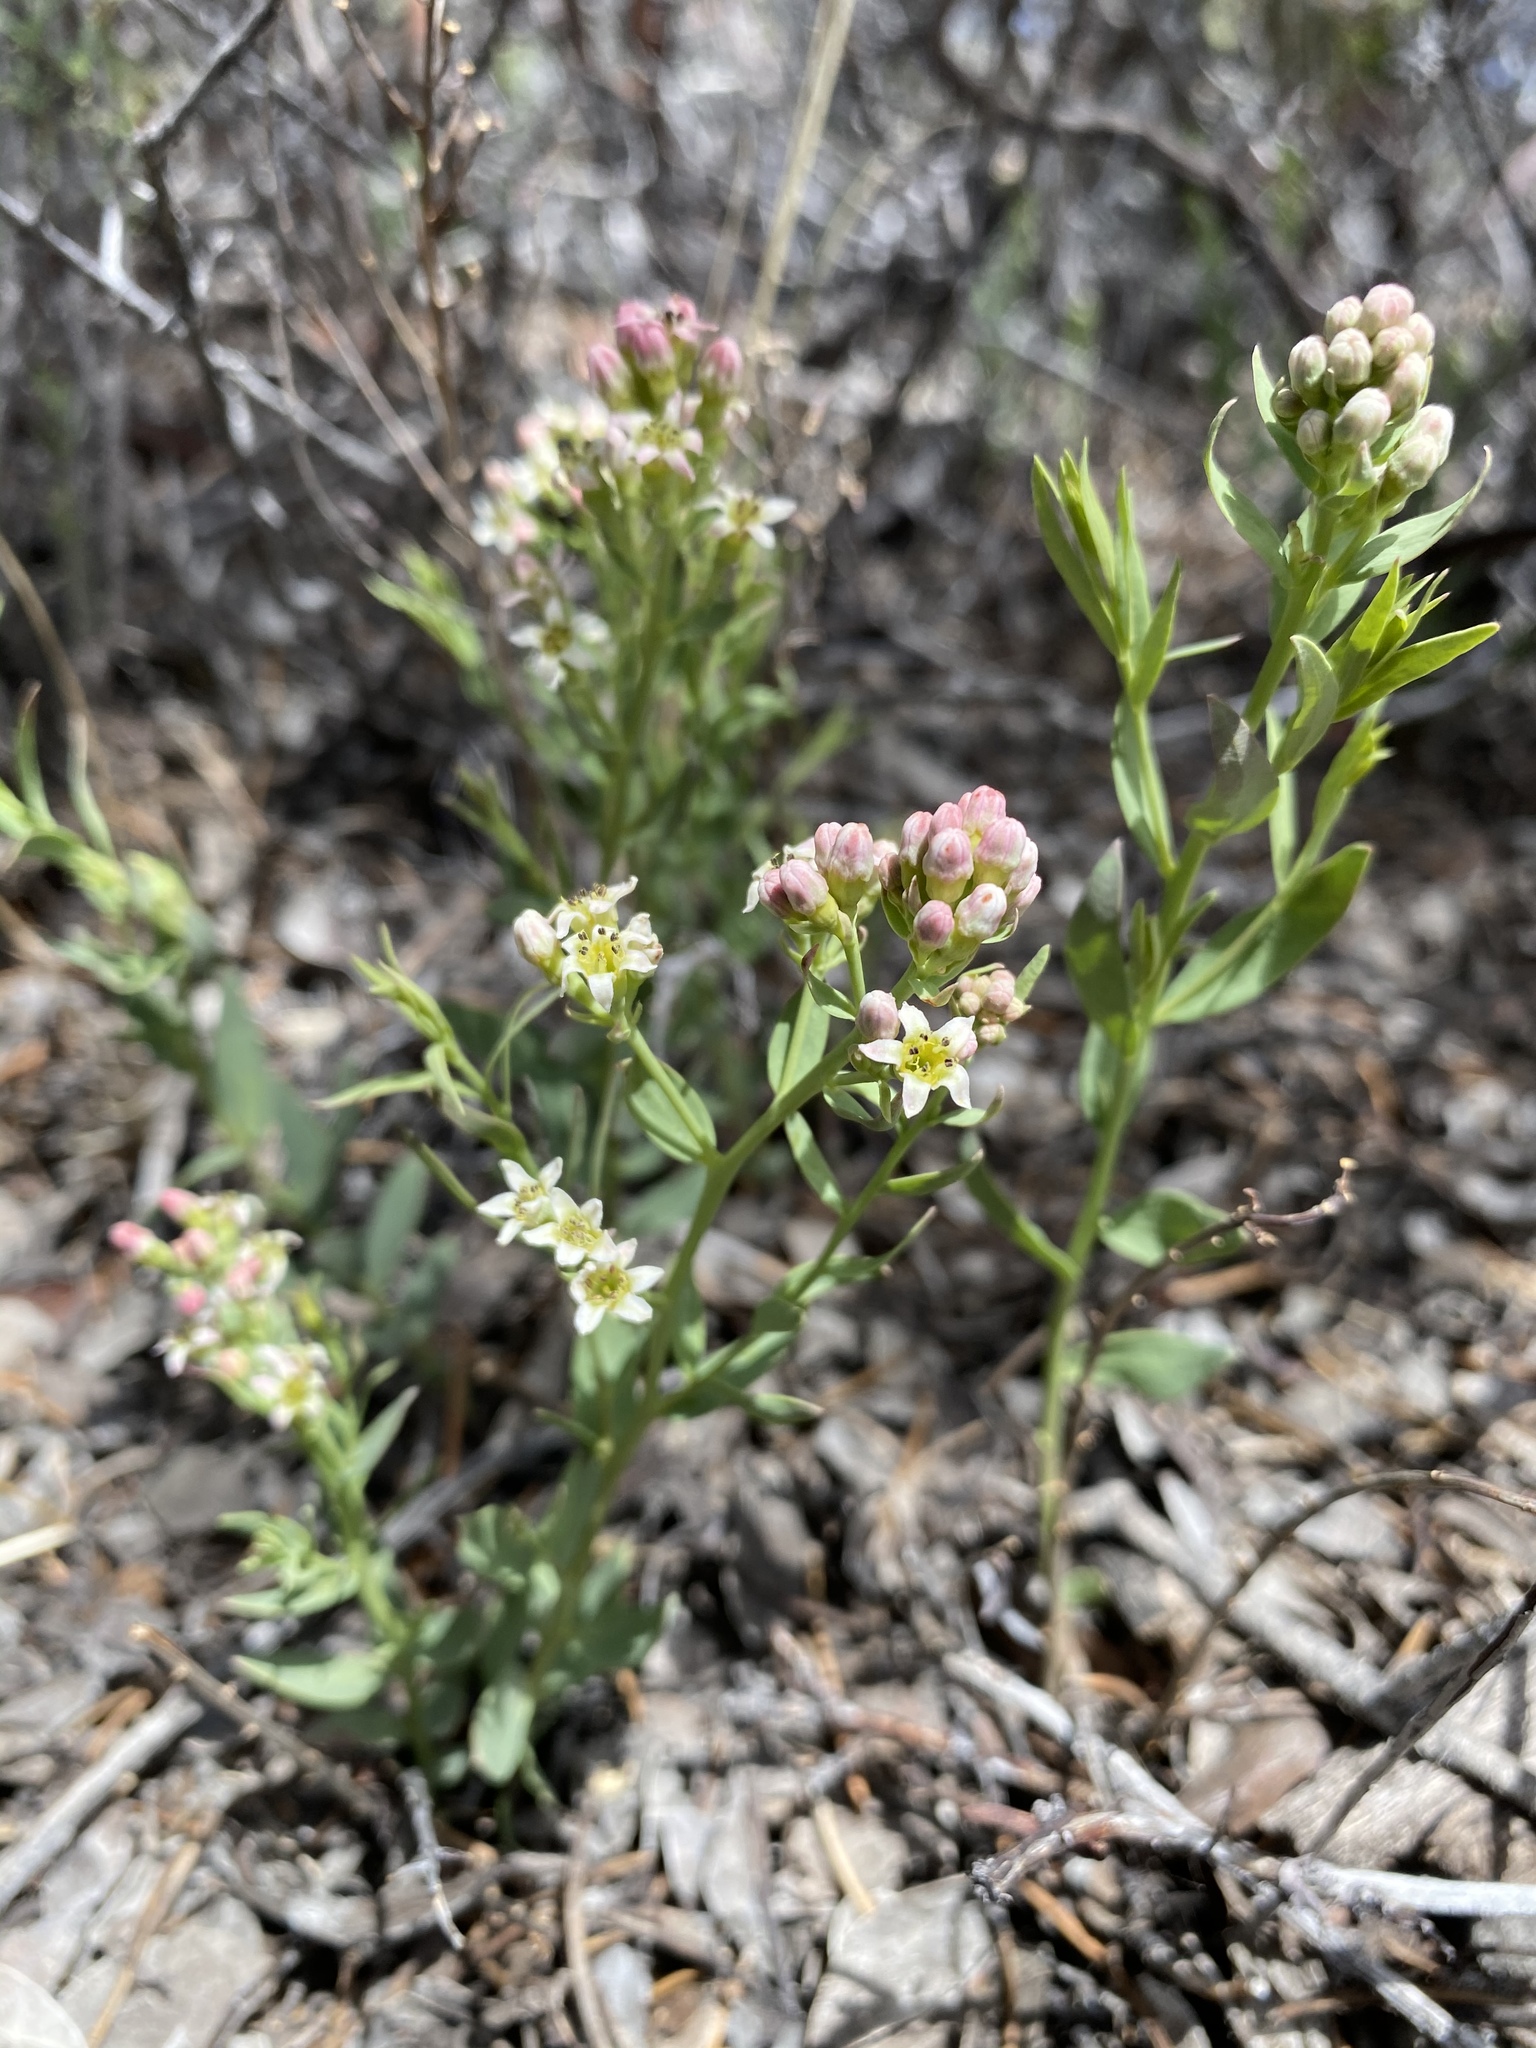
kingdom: Plantae
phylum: Tracheophyta
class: Magnoliopsida
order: Santalales
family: Comandraceae
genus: Comandra
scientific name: Comandra umbellata
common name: Bastard toadflax
